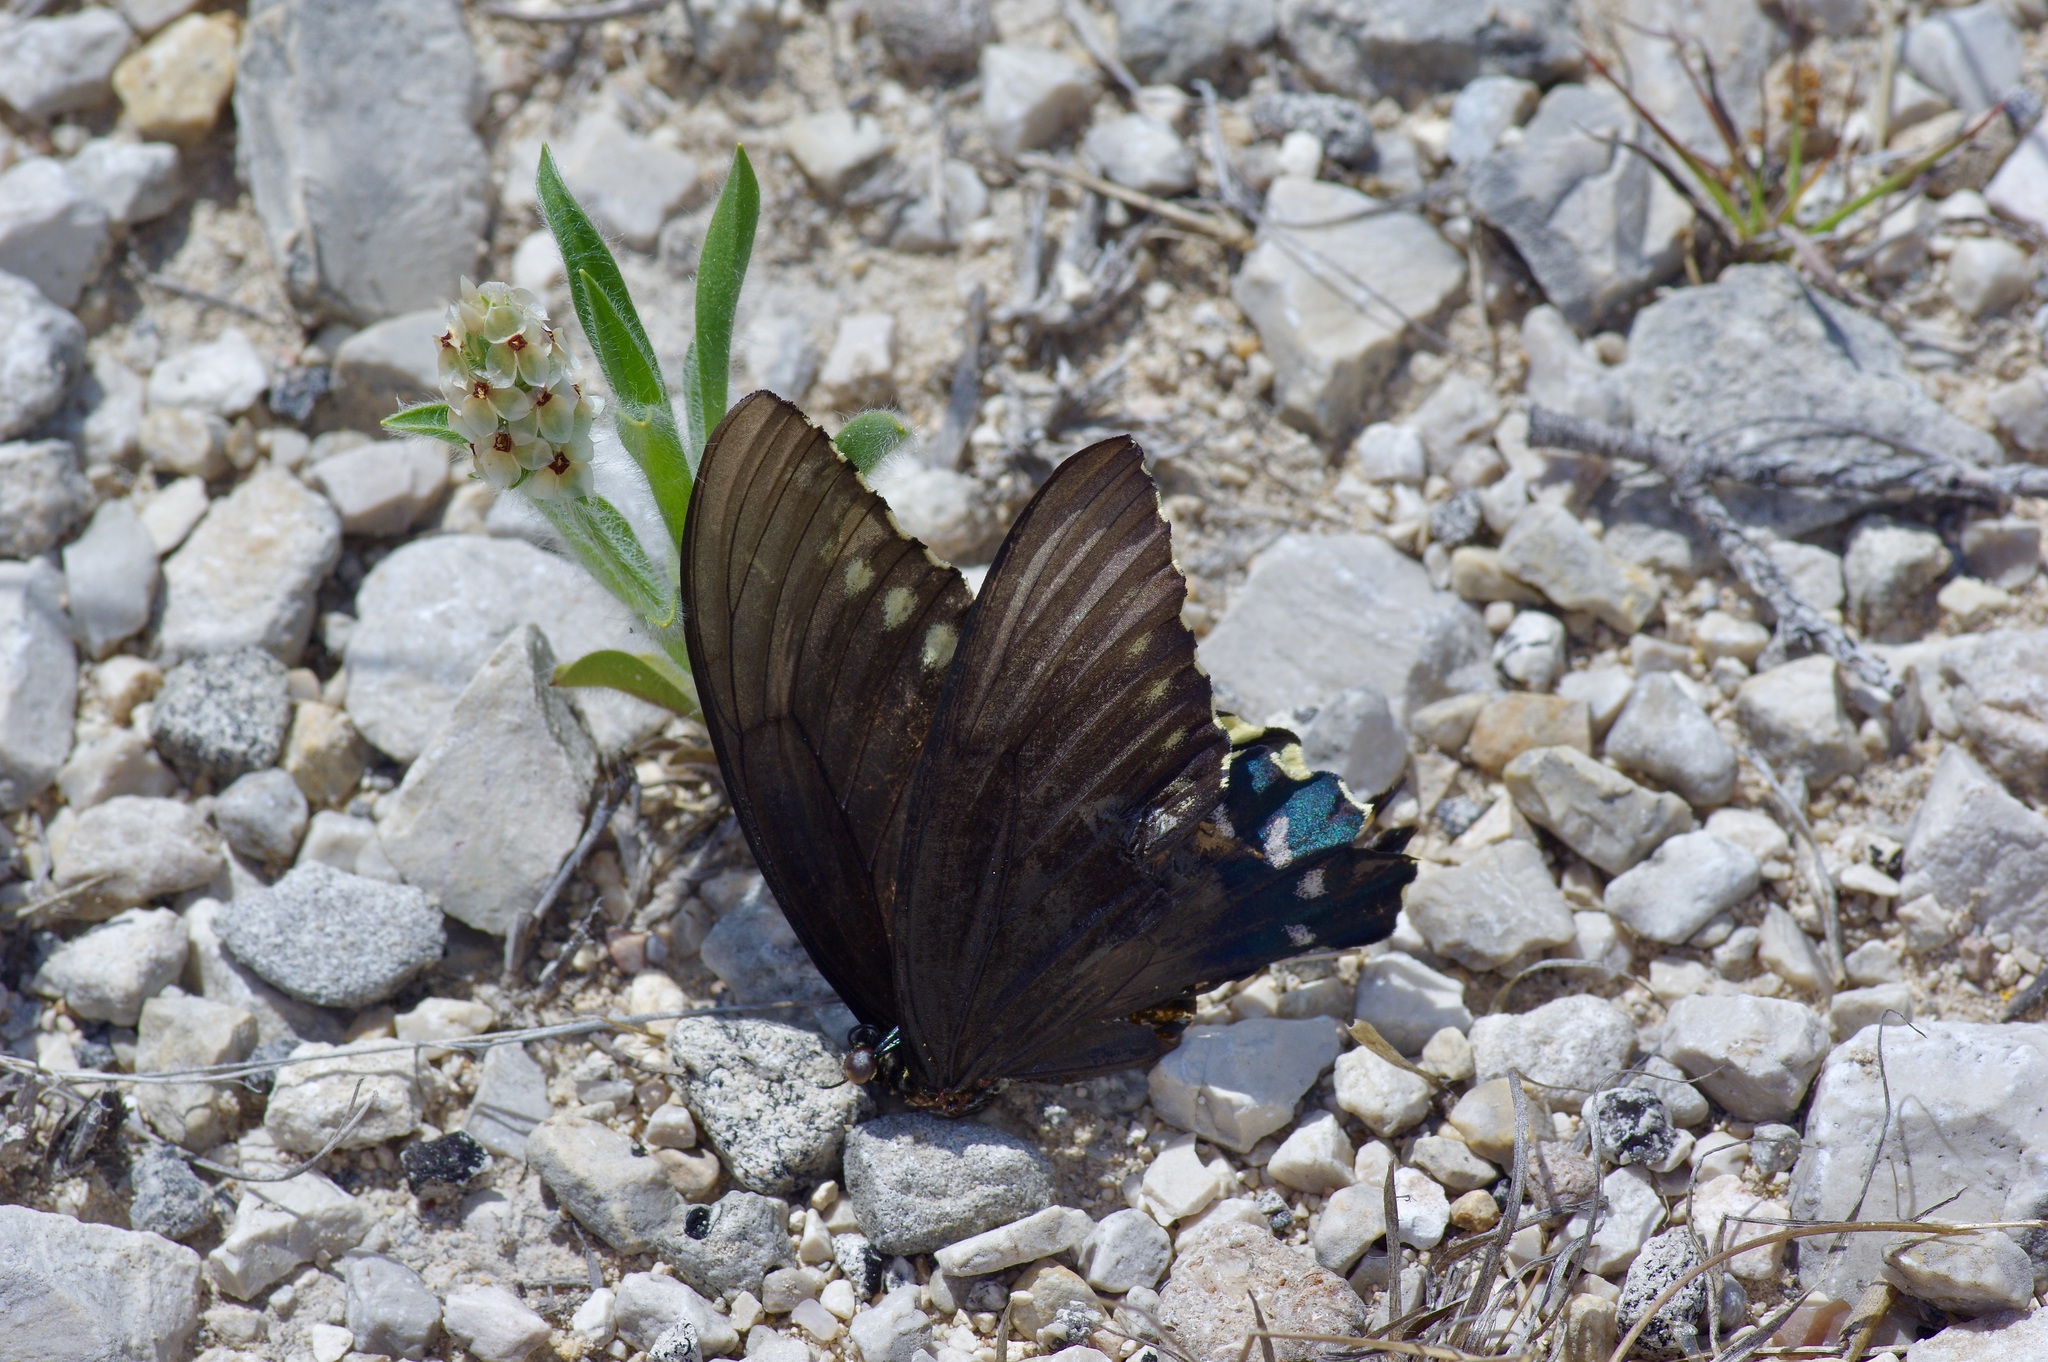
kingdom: Animalia
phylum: Arthropoda
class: Insecta
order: Lepidoptera
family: Papilionidae
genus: Battus
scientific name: Battus philenor
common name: Pipevine swallowtail
